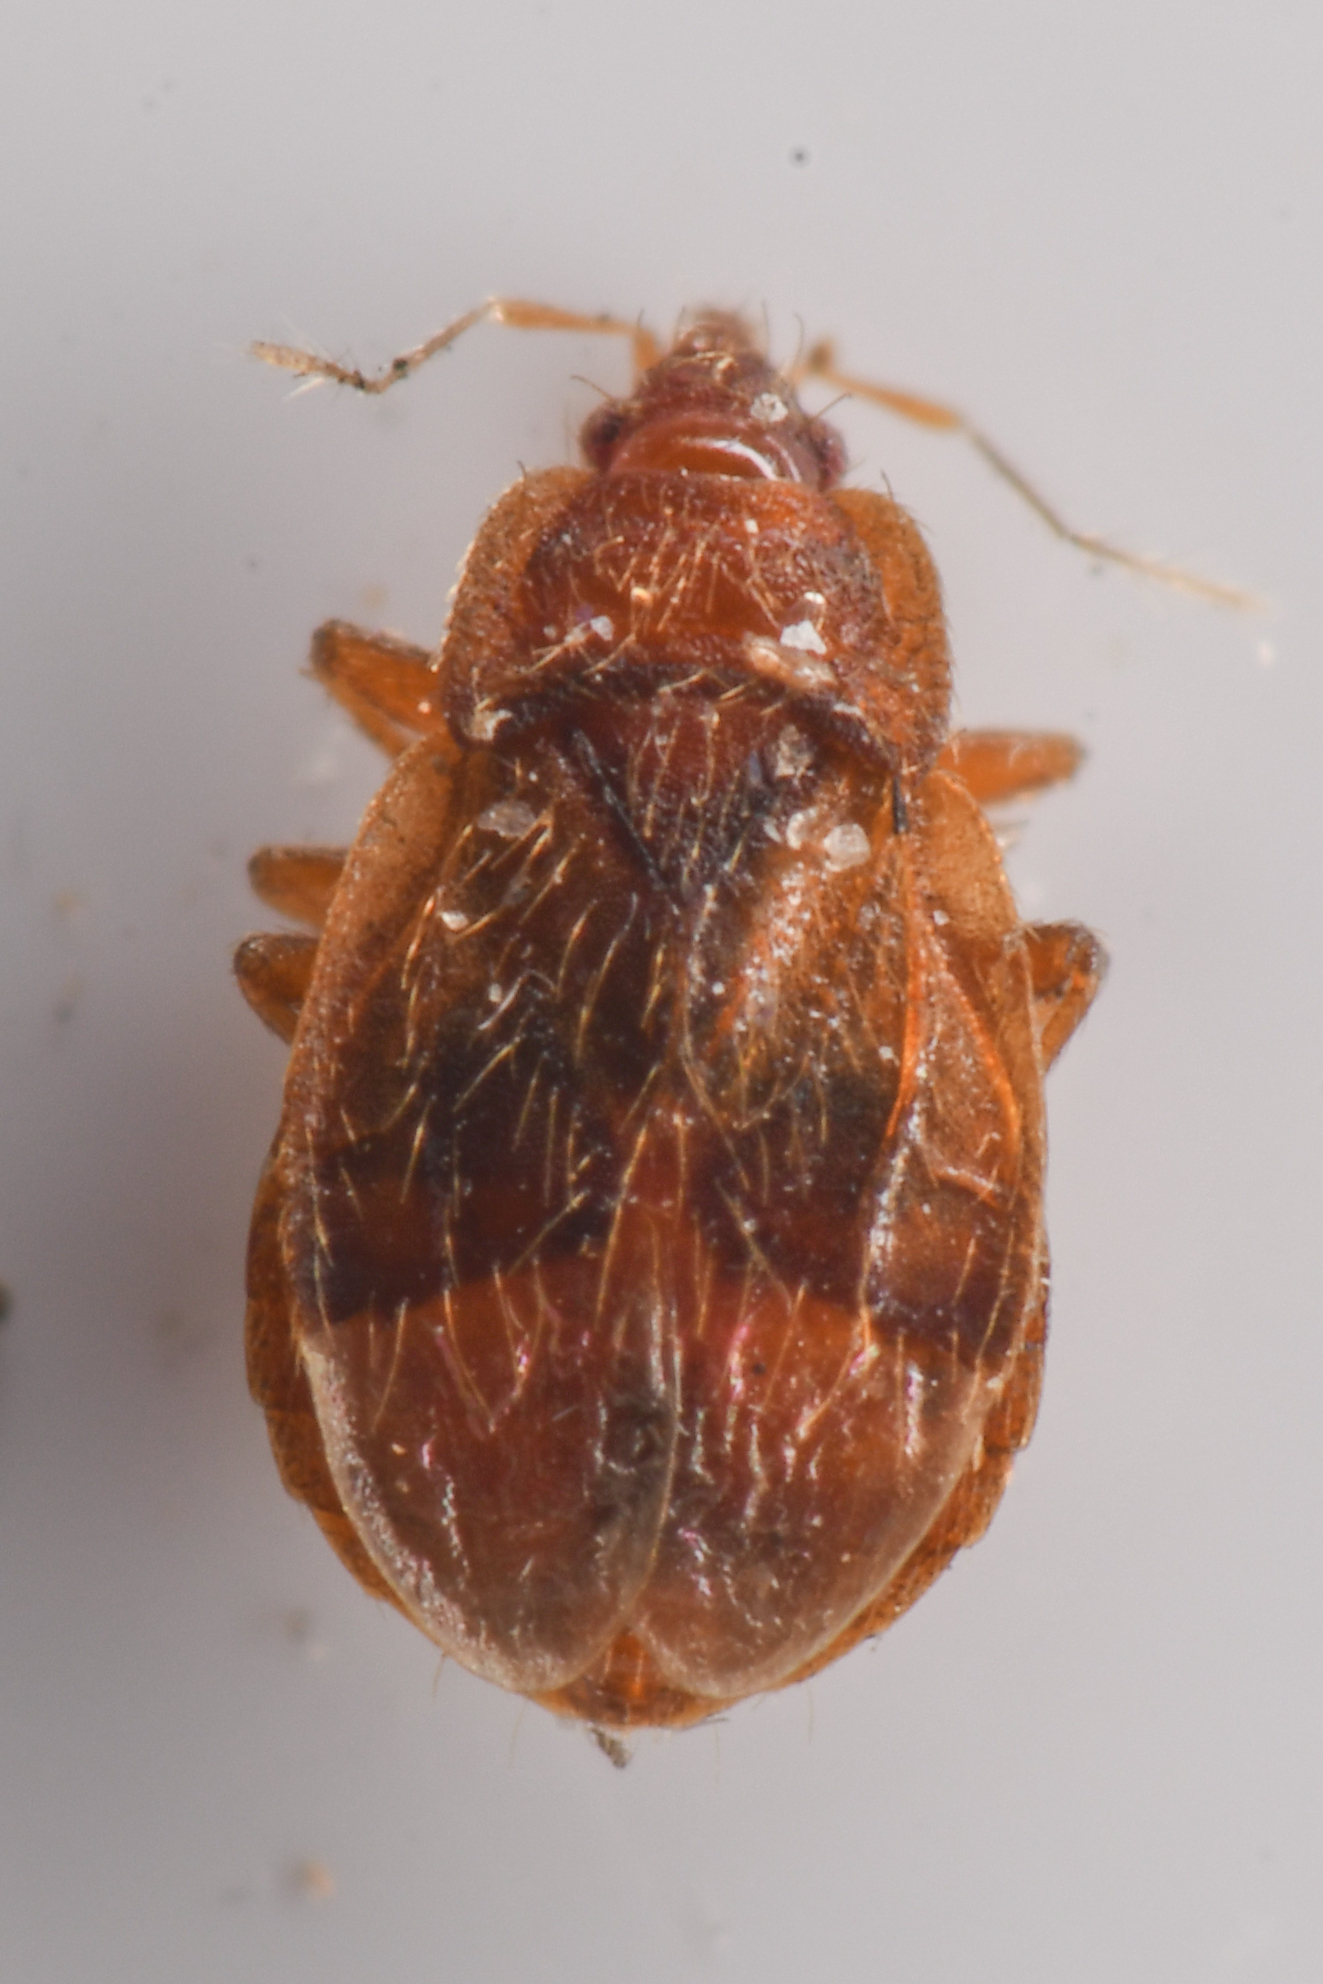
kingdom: Animalia
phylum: Arthropoda
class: Insecta
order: Hemiptera
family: Anthocoridae
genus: Nidicola
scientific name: Nidicola jaegeri
